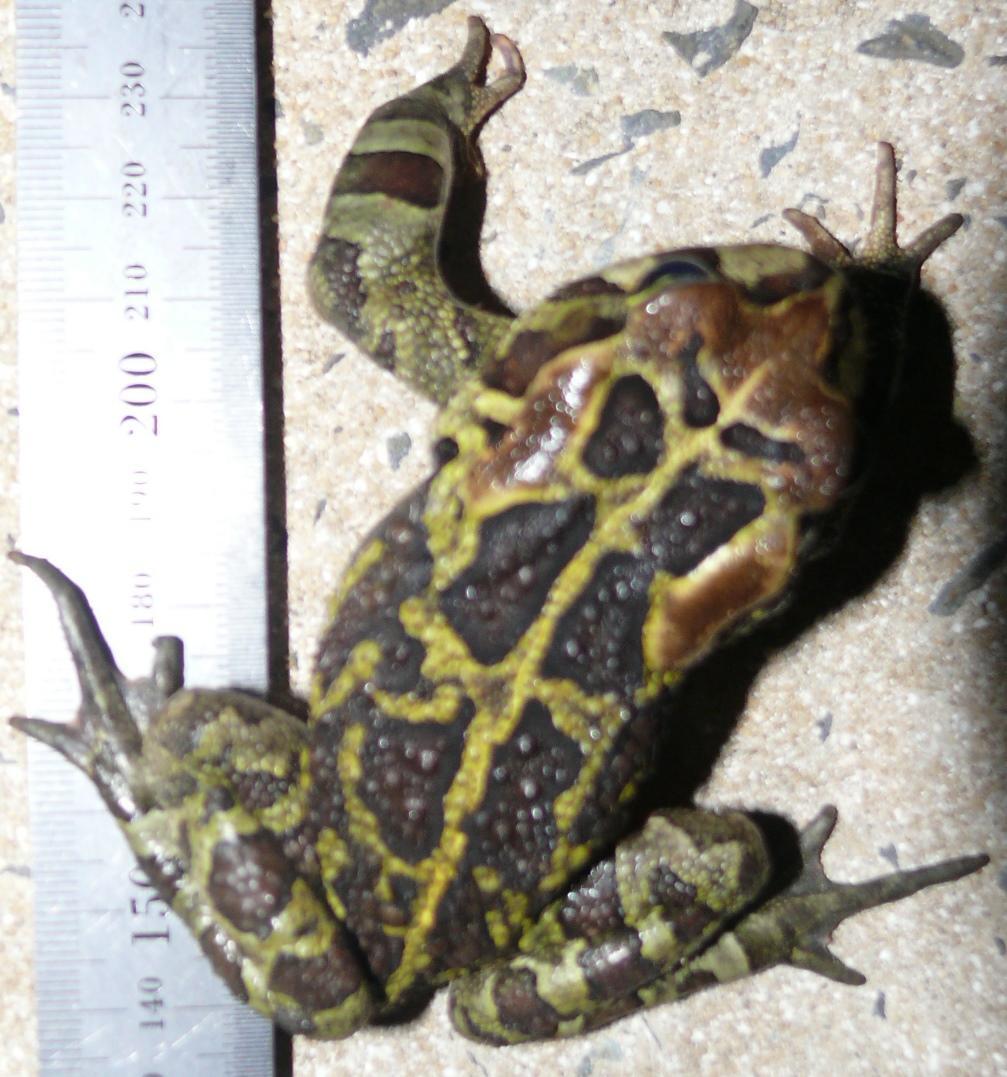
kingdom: Animalia
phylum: Chordata
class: Amphibia
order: Anura
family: Bufonidae
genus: Sclerophrys
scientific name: Sclerophrys pantherina
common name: Panther toad
